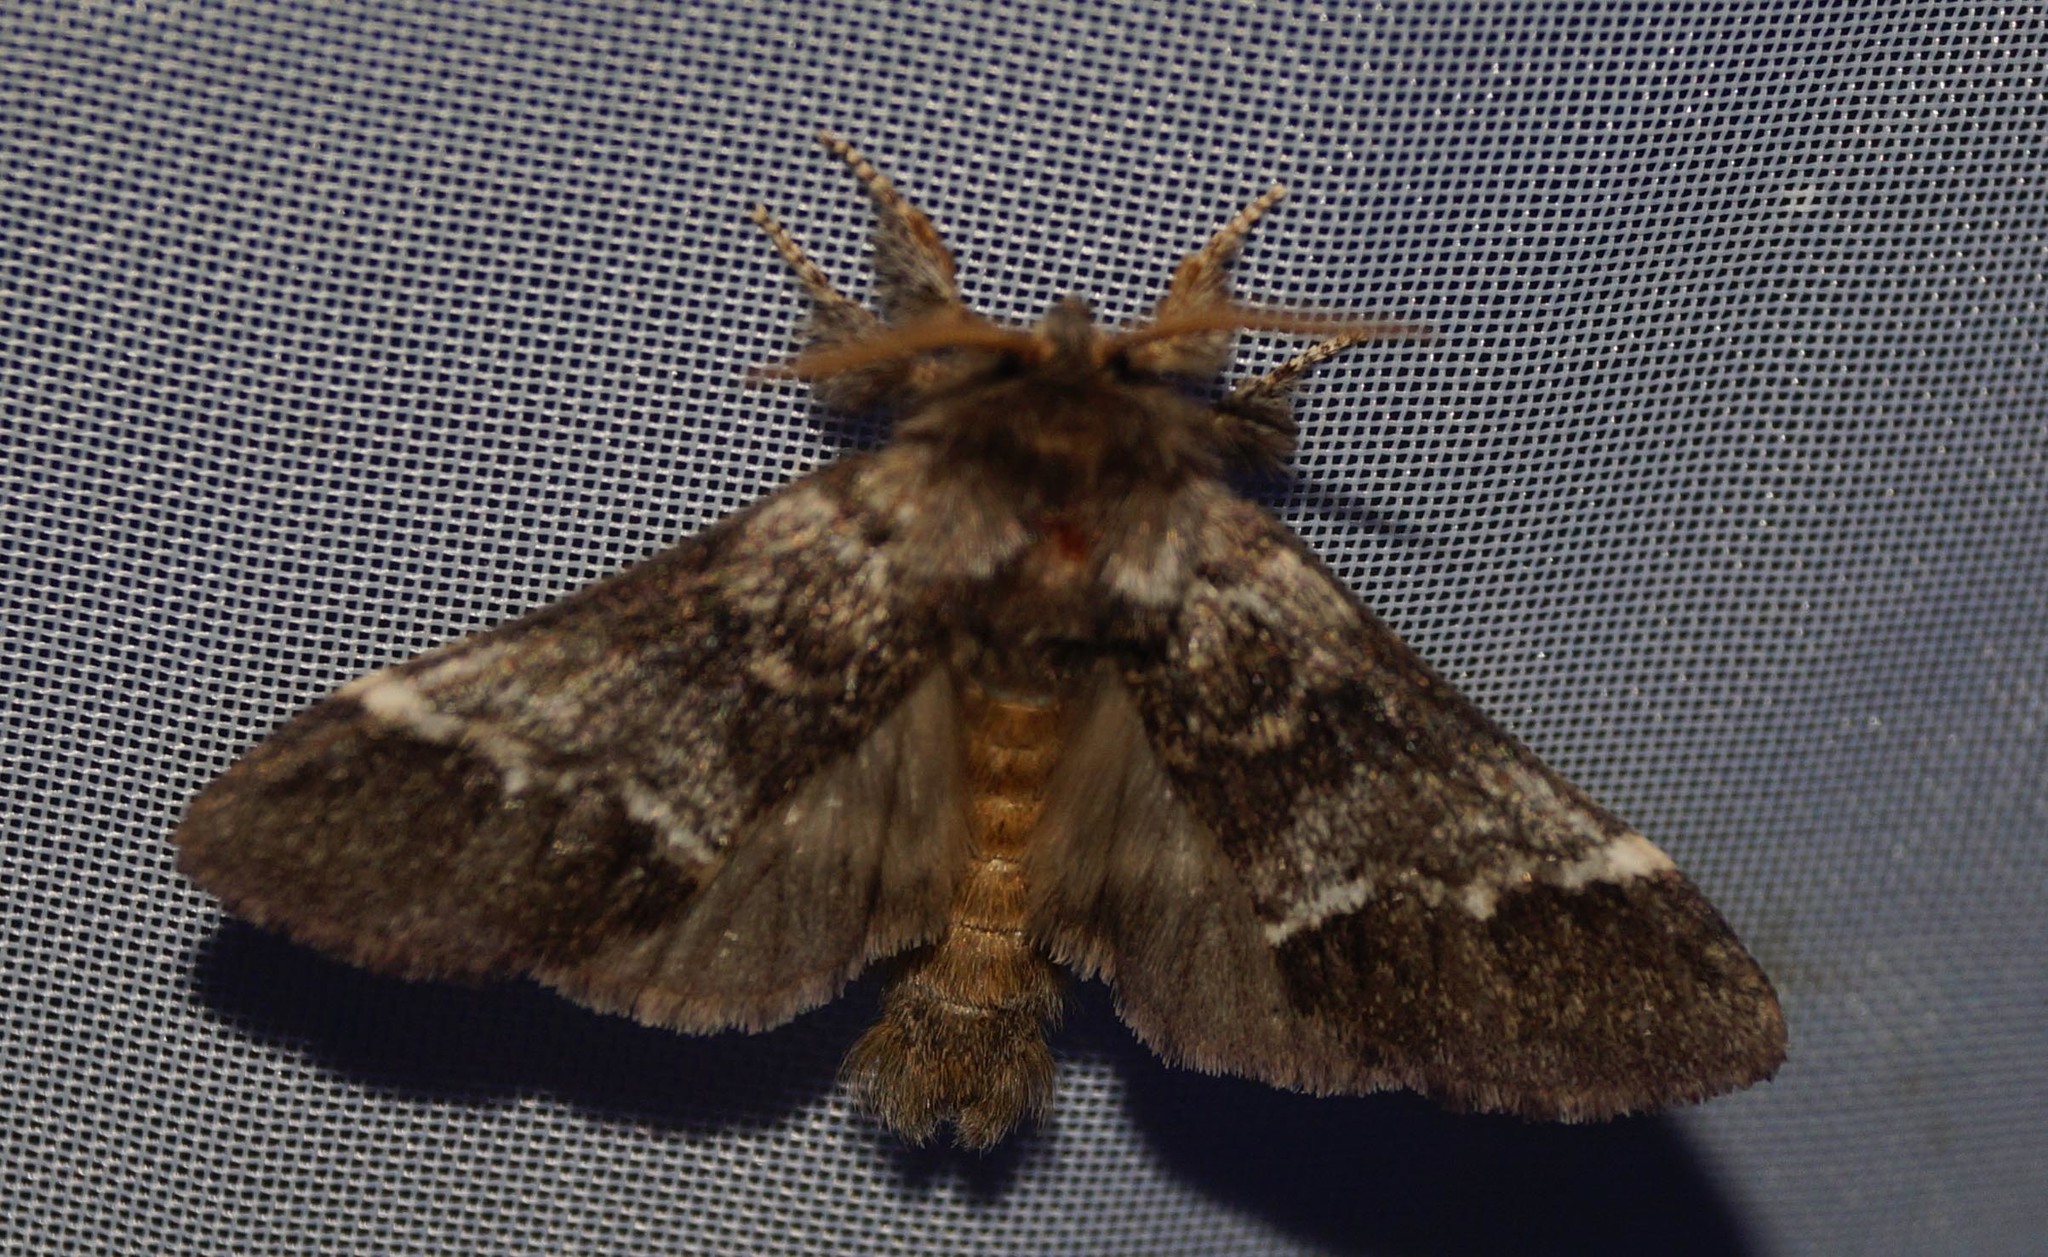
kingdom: Animalia
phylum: Arthropoda
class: Insecta
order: Lepidoptera
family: Notodontidae
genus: Drymonia
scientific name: Drymonia dodonaea
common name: Marbled brown
